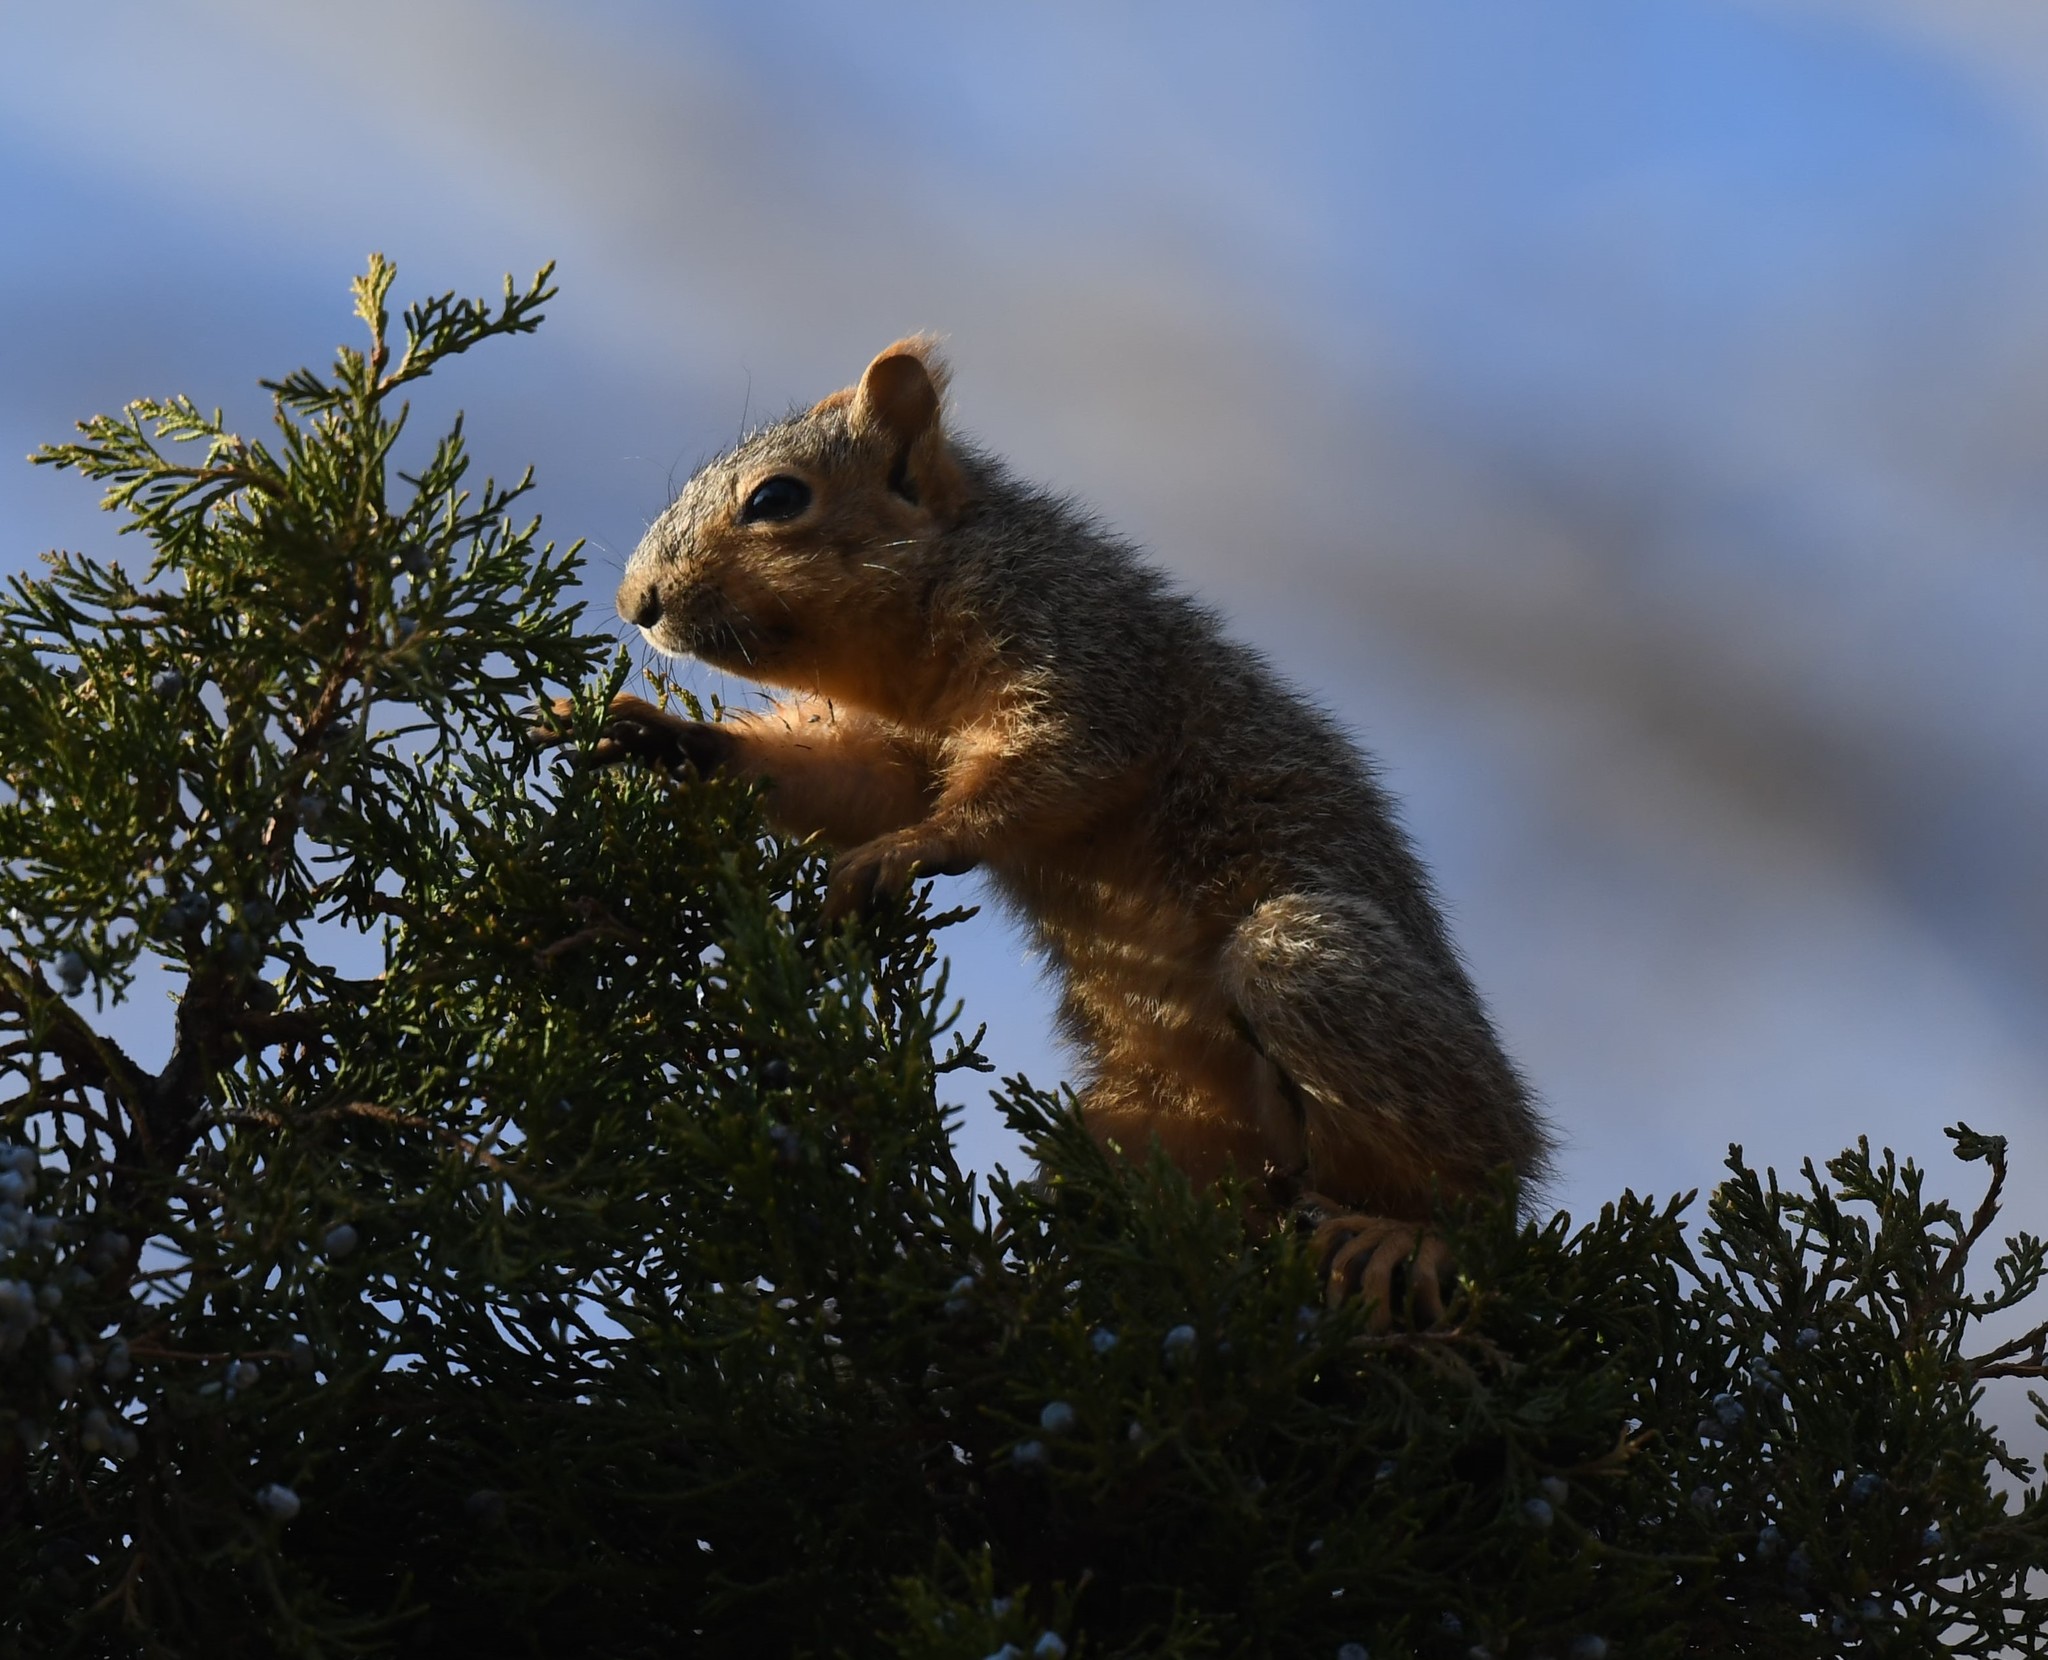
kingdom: Animalia
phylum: Chordata
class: Mammalia
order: Rodentia
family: Sciuridae
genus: Sciurus
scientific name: Sciurus niger
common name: Fox squirrel
